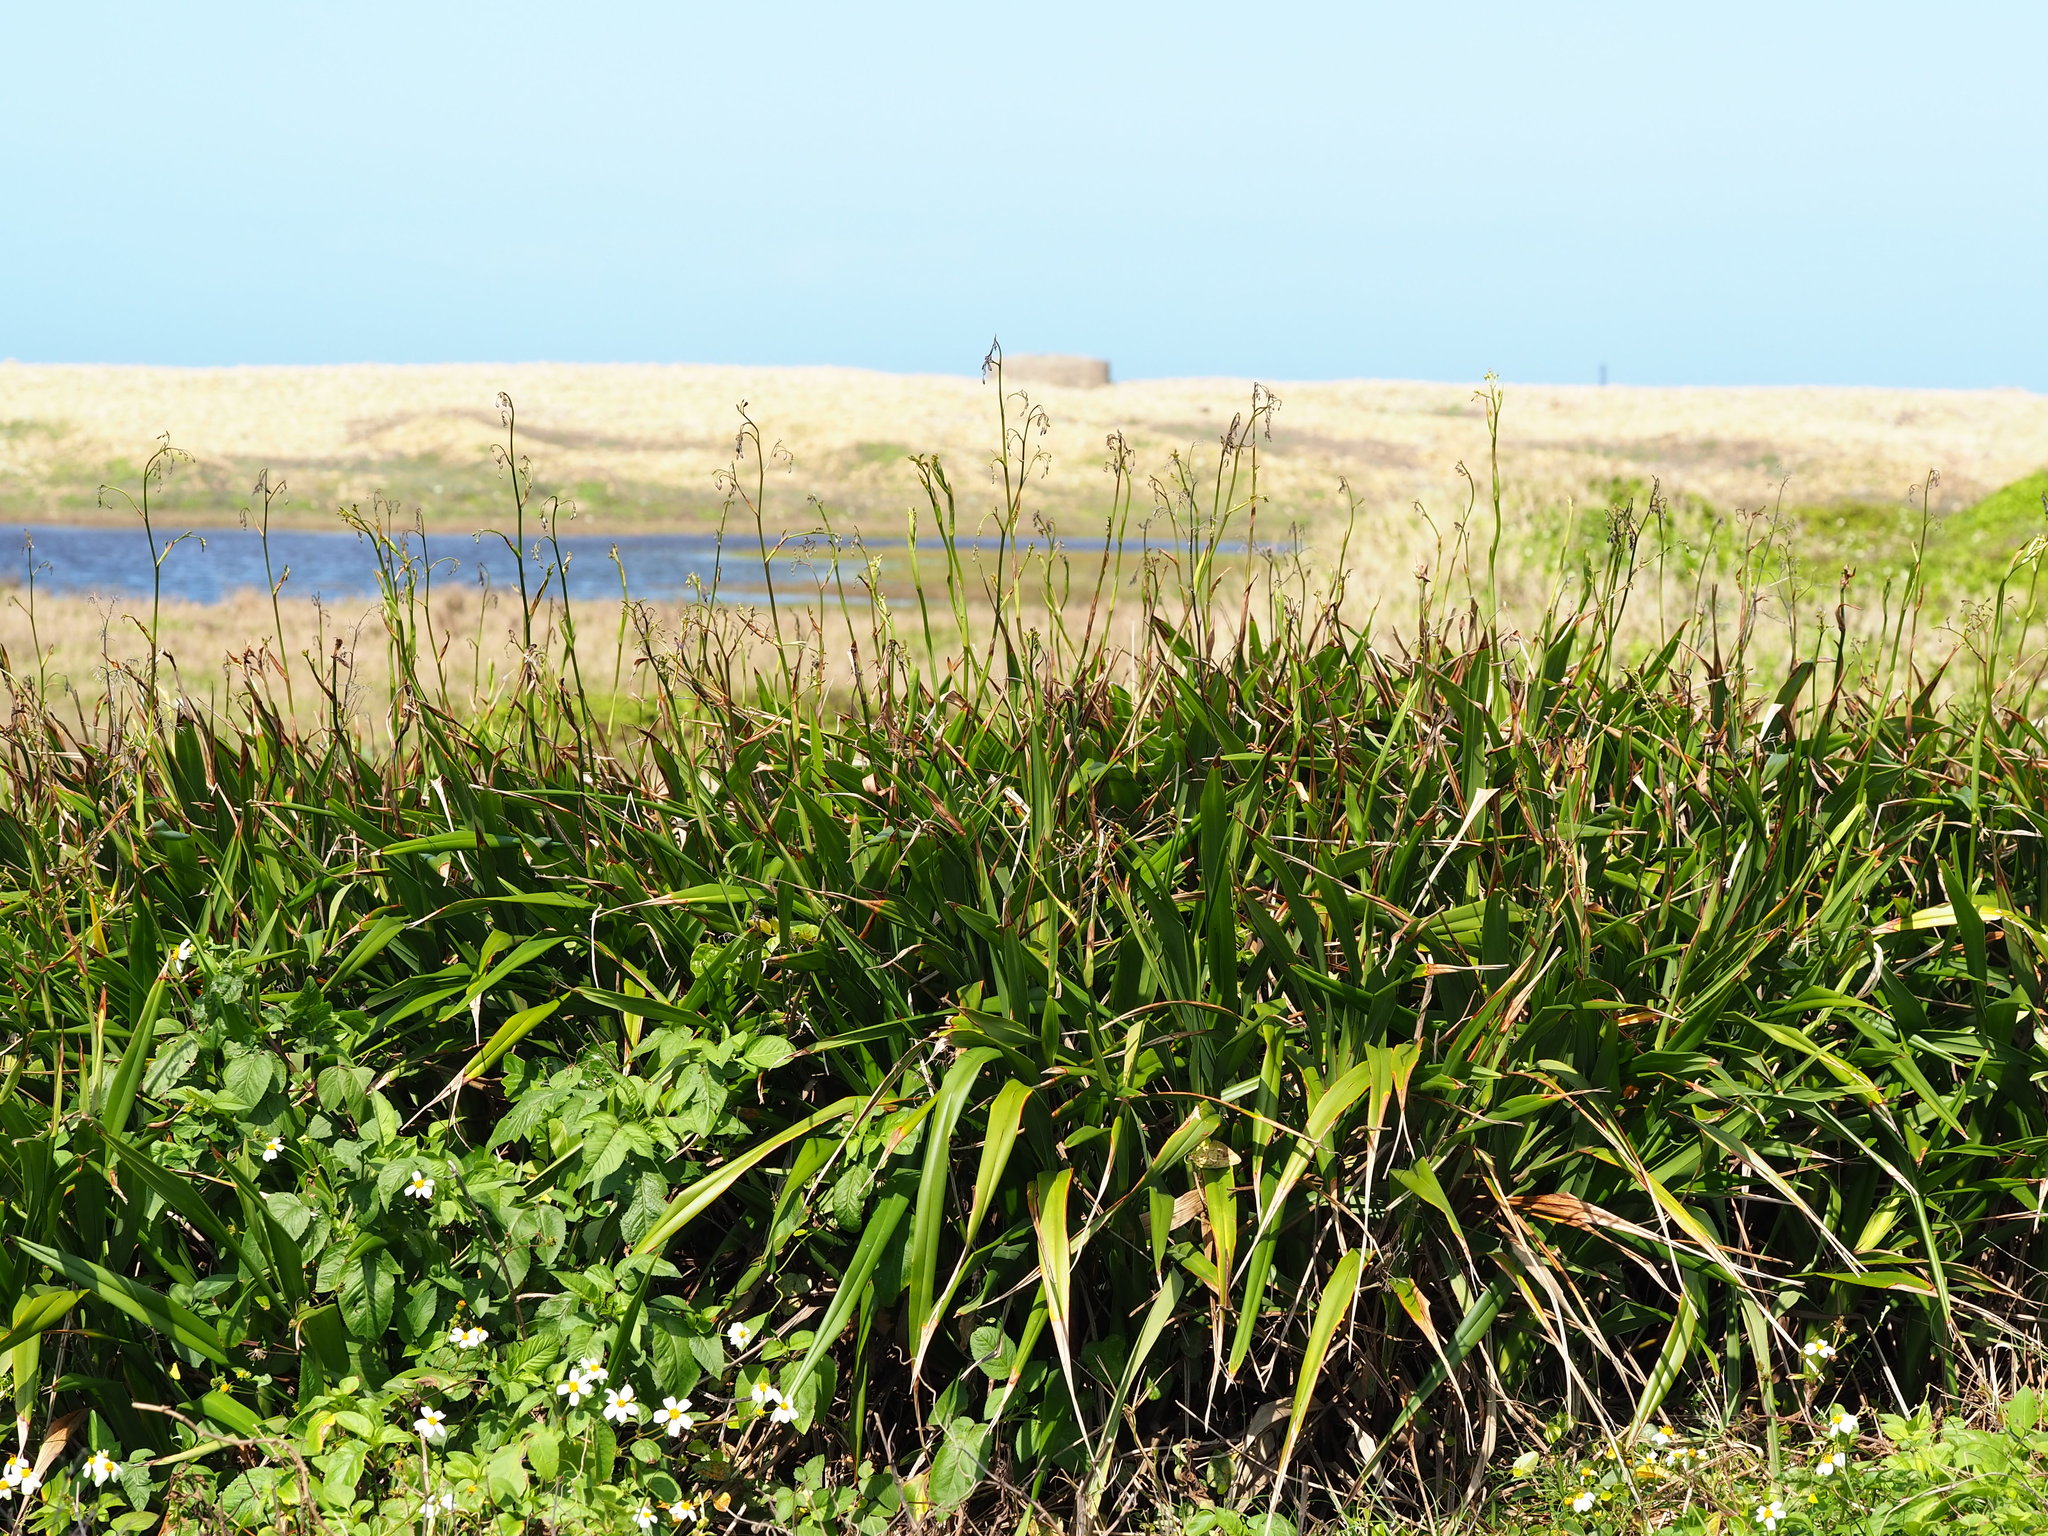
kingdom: Plantae
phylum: Tracheophyta
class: Liliopsida
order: Asparagales
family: Asphodelaceae
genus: Dianella
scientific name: Dianella ensifolia
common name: New zealand lilyplant
